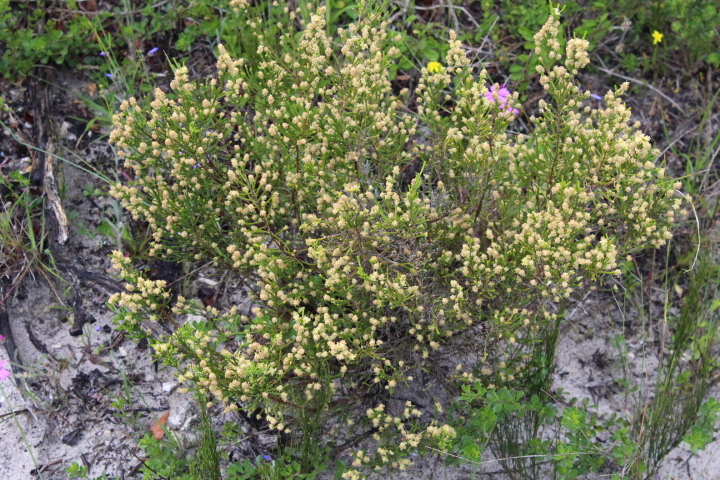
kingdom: Plantae
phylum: Tracheophyta
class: Magnoliopsida
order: Malvales
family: Thymelaeaceae
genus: Passerina
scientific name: Passerina paleacea
